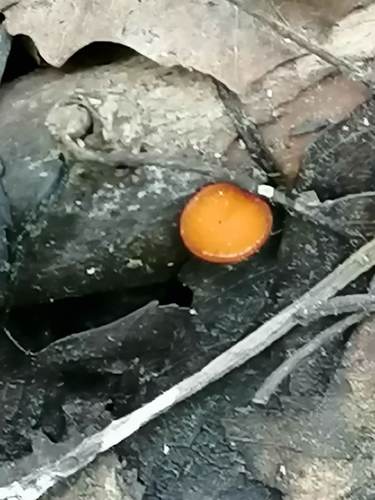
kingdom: Fungi
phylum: Ascomycota
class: Pezizomycetes
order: Pezizales
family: Pyronemataceae
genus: Scutellinia
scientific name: Scutellinia
